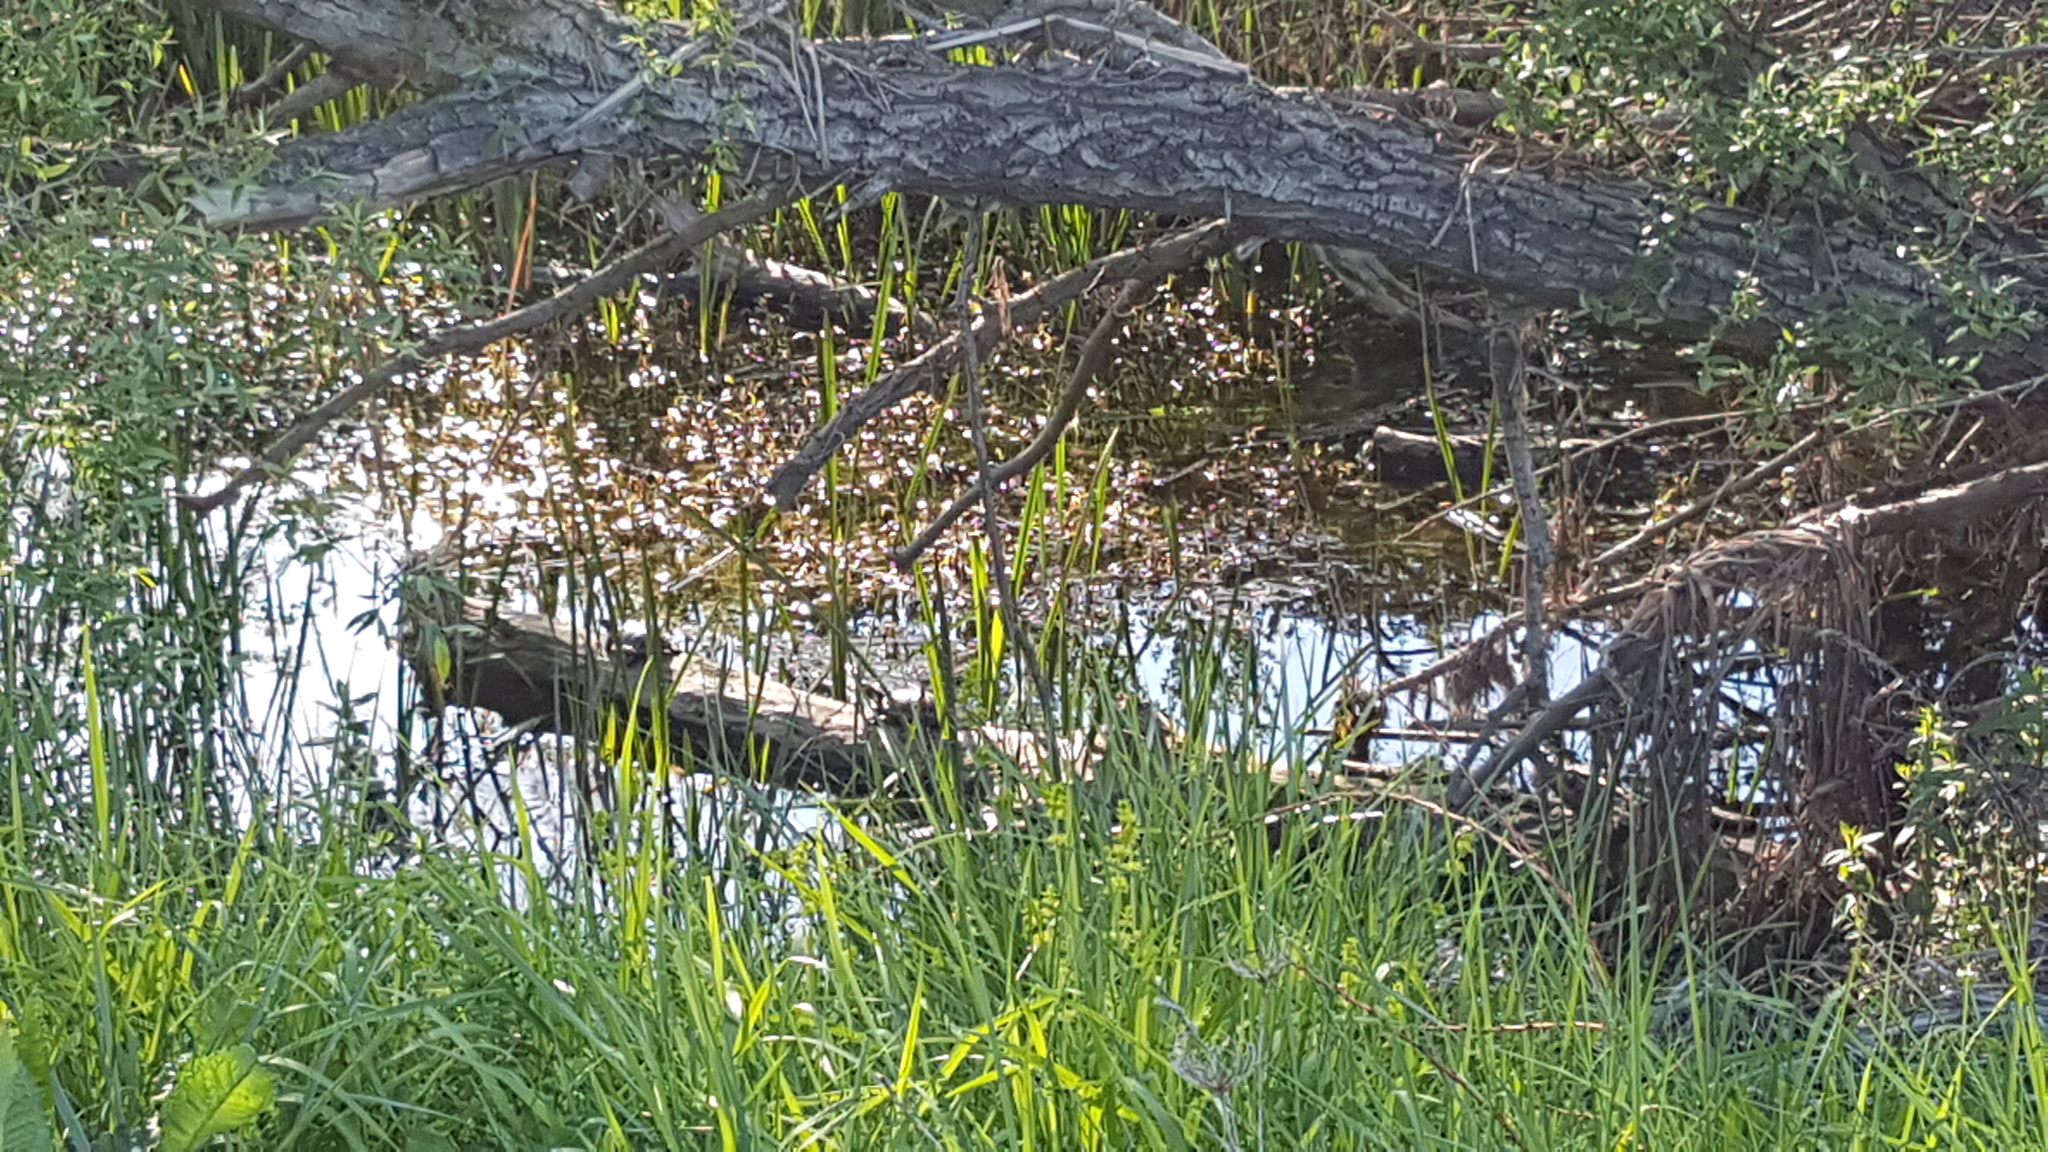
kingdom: Animalia
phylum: Chordata
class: Testudines
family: Emydidae
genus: Emys
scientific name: Emys orbicularis
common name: European pond turtle
